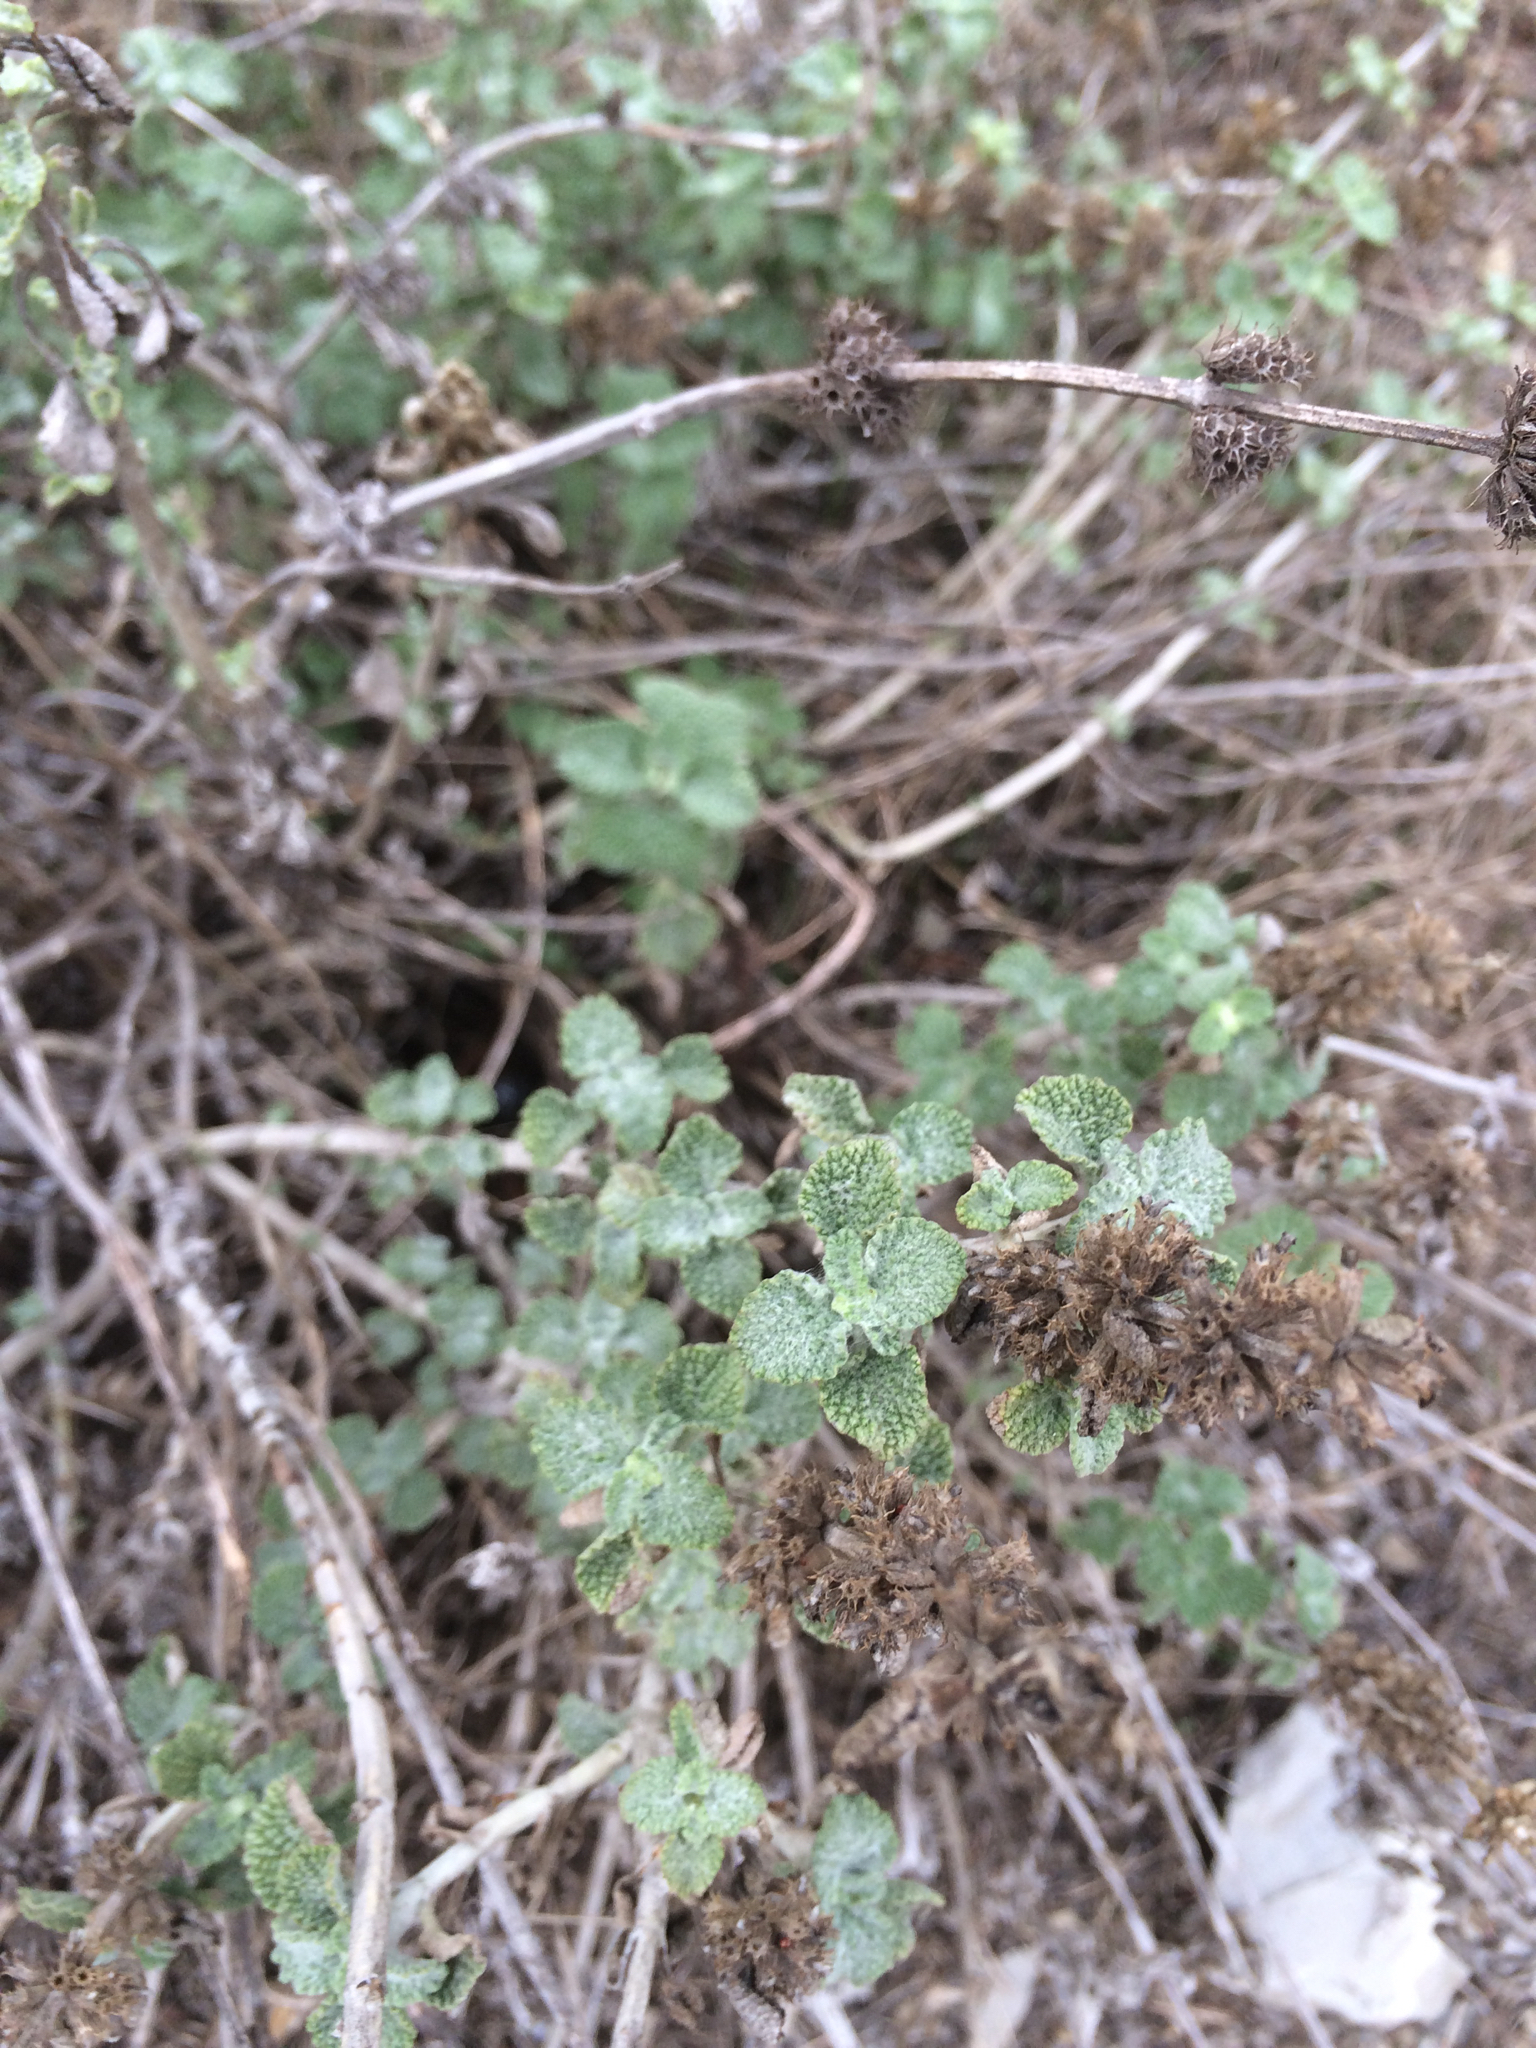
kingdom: Plantae
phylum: Tracheophyta
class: Magnoliopsida
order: Lamiales
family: Lamiaceae
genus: Marrubium
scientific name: Marrubium vulgare
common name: Horehound
